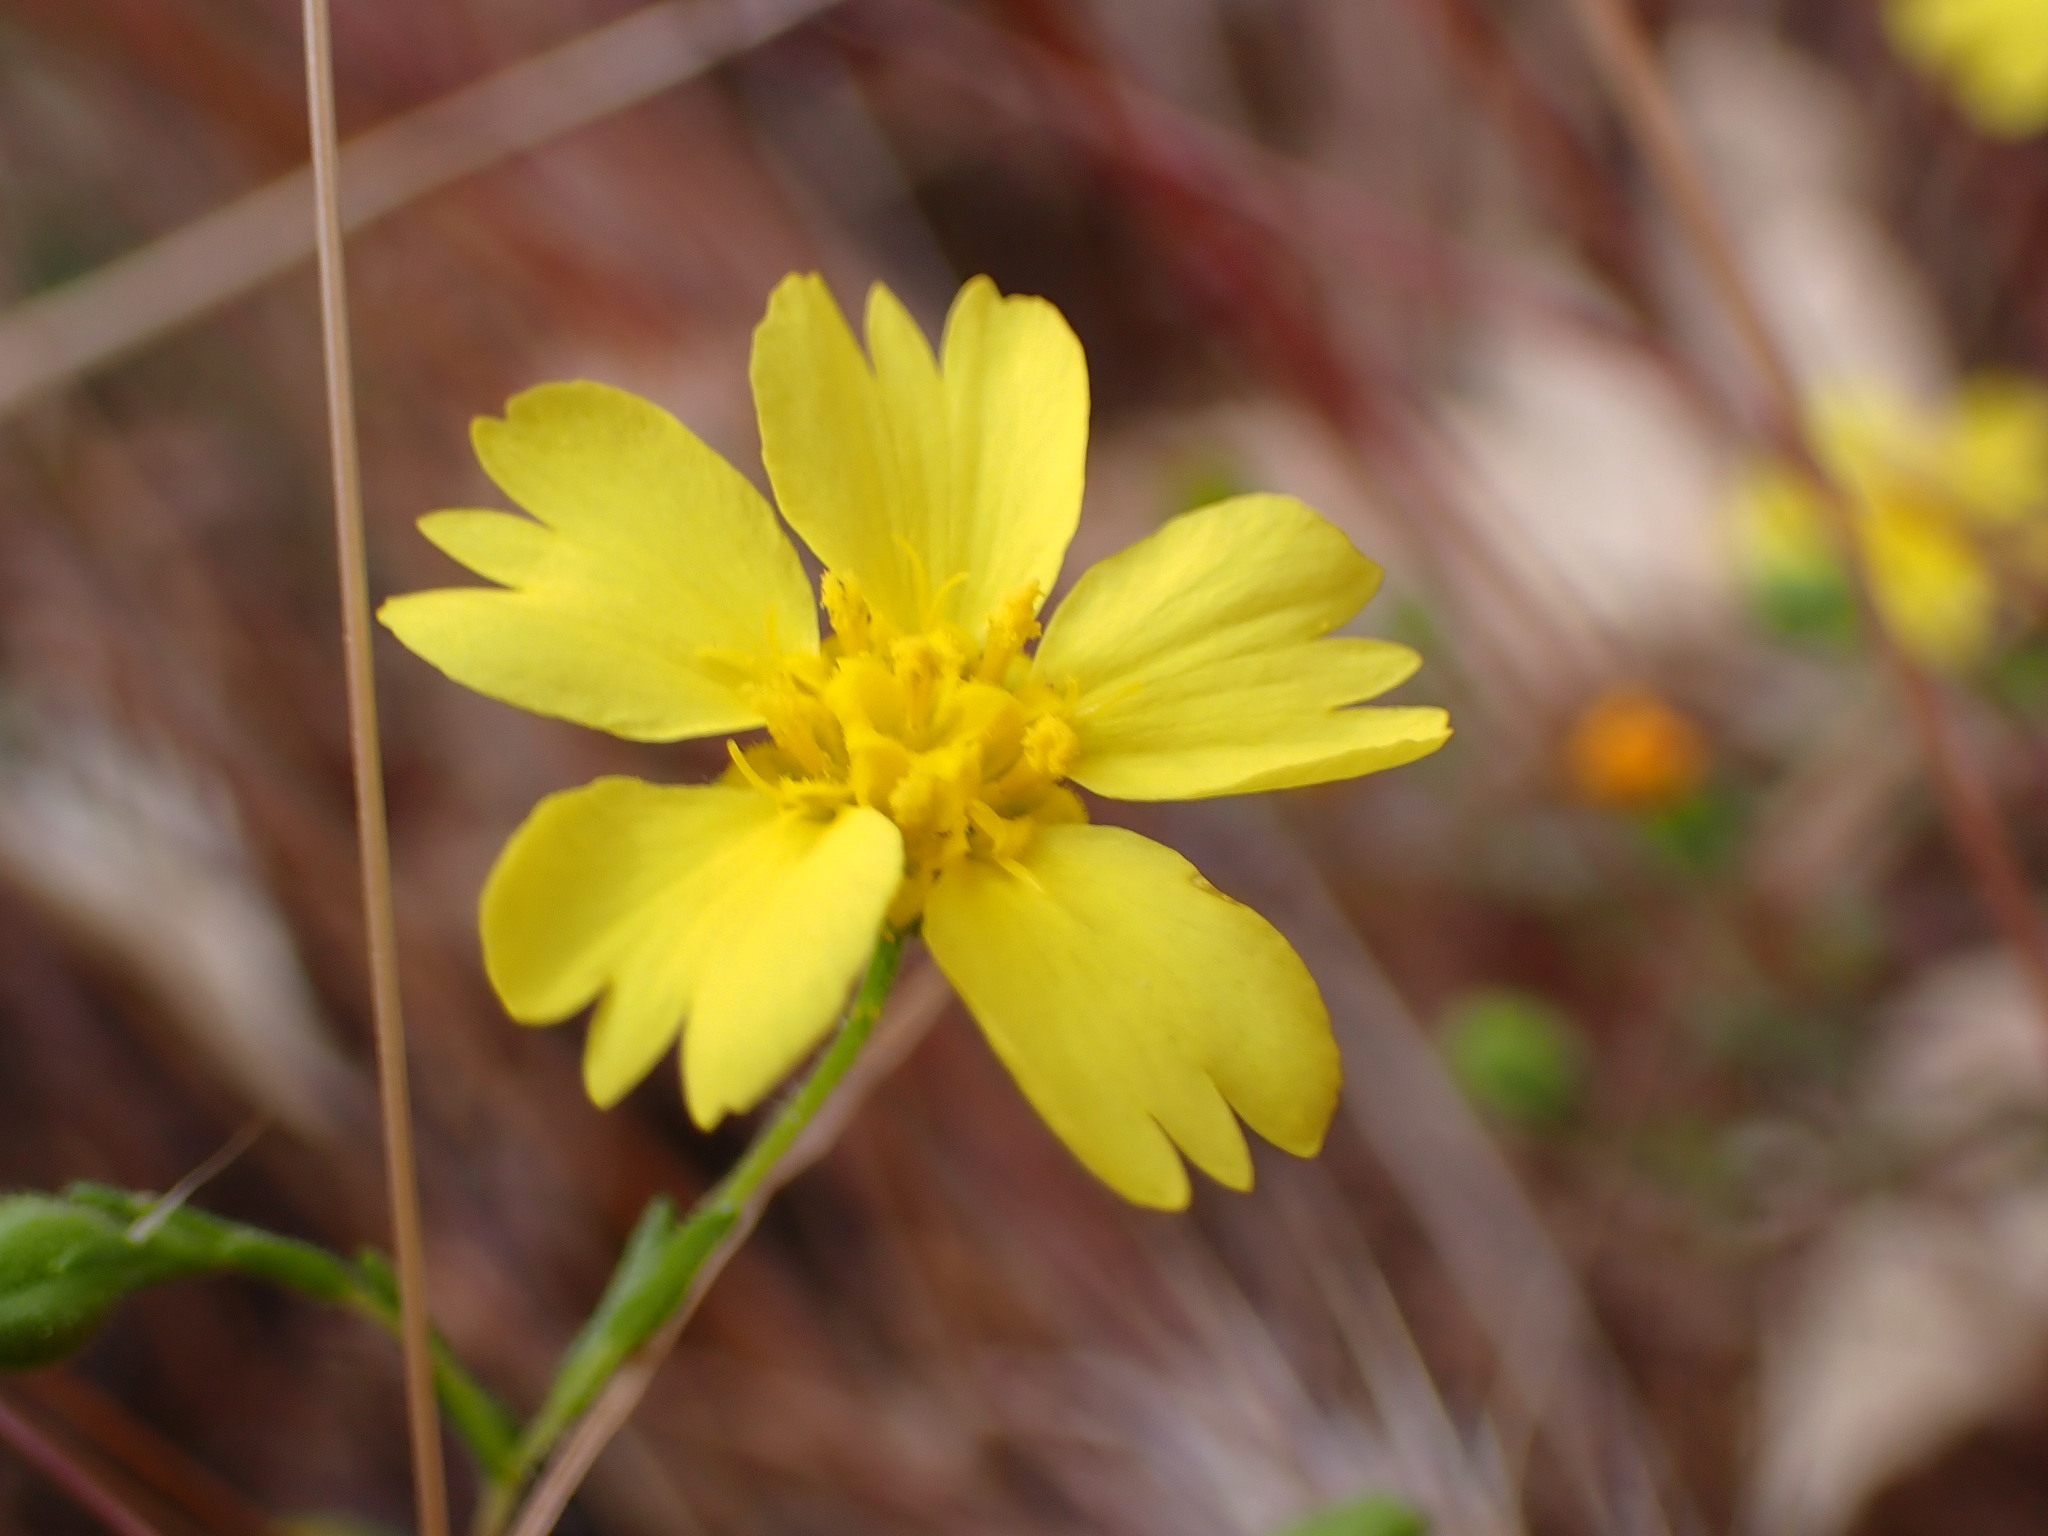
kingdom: Plantae
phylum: Tracheophyta
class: Magnoliopsida
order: Asterales
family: Asteraceae
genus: Deinandra
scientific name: Deinandra kelloggii
